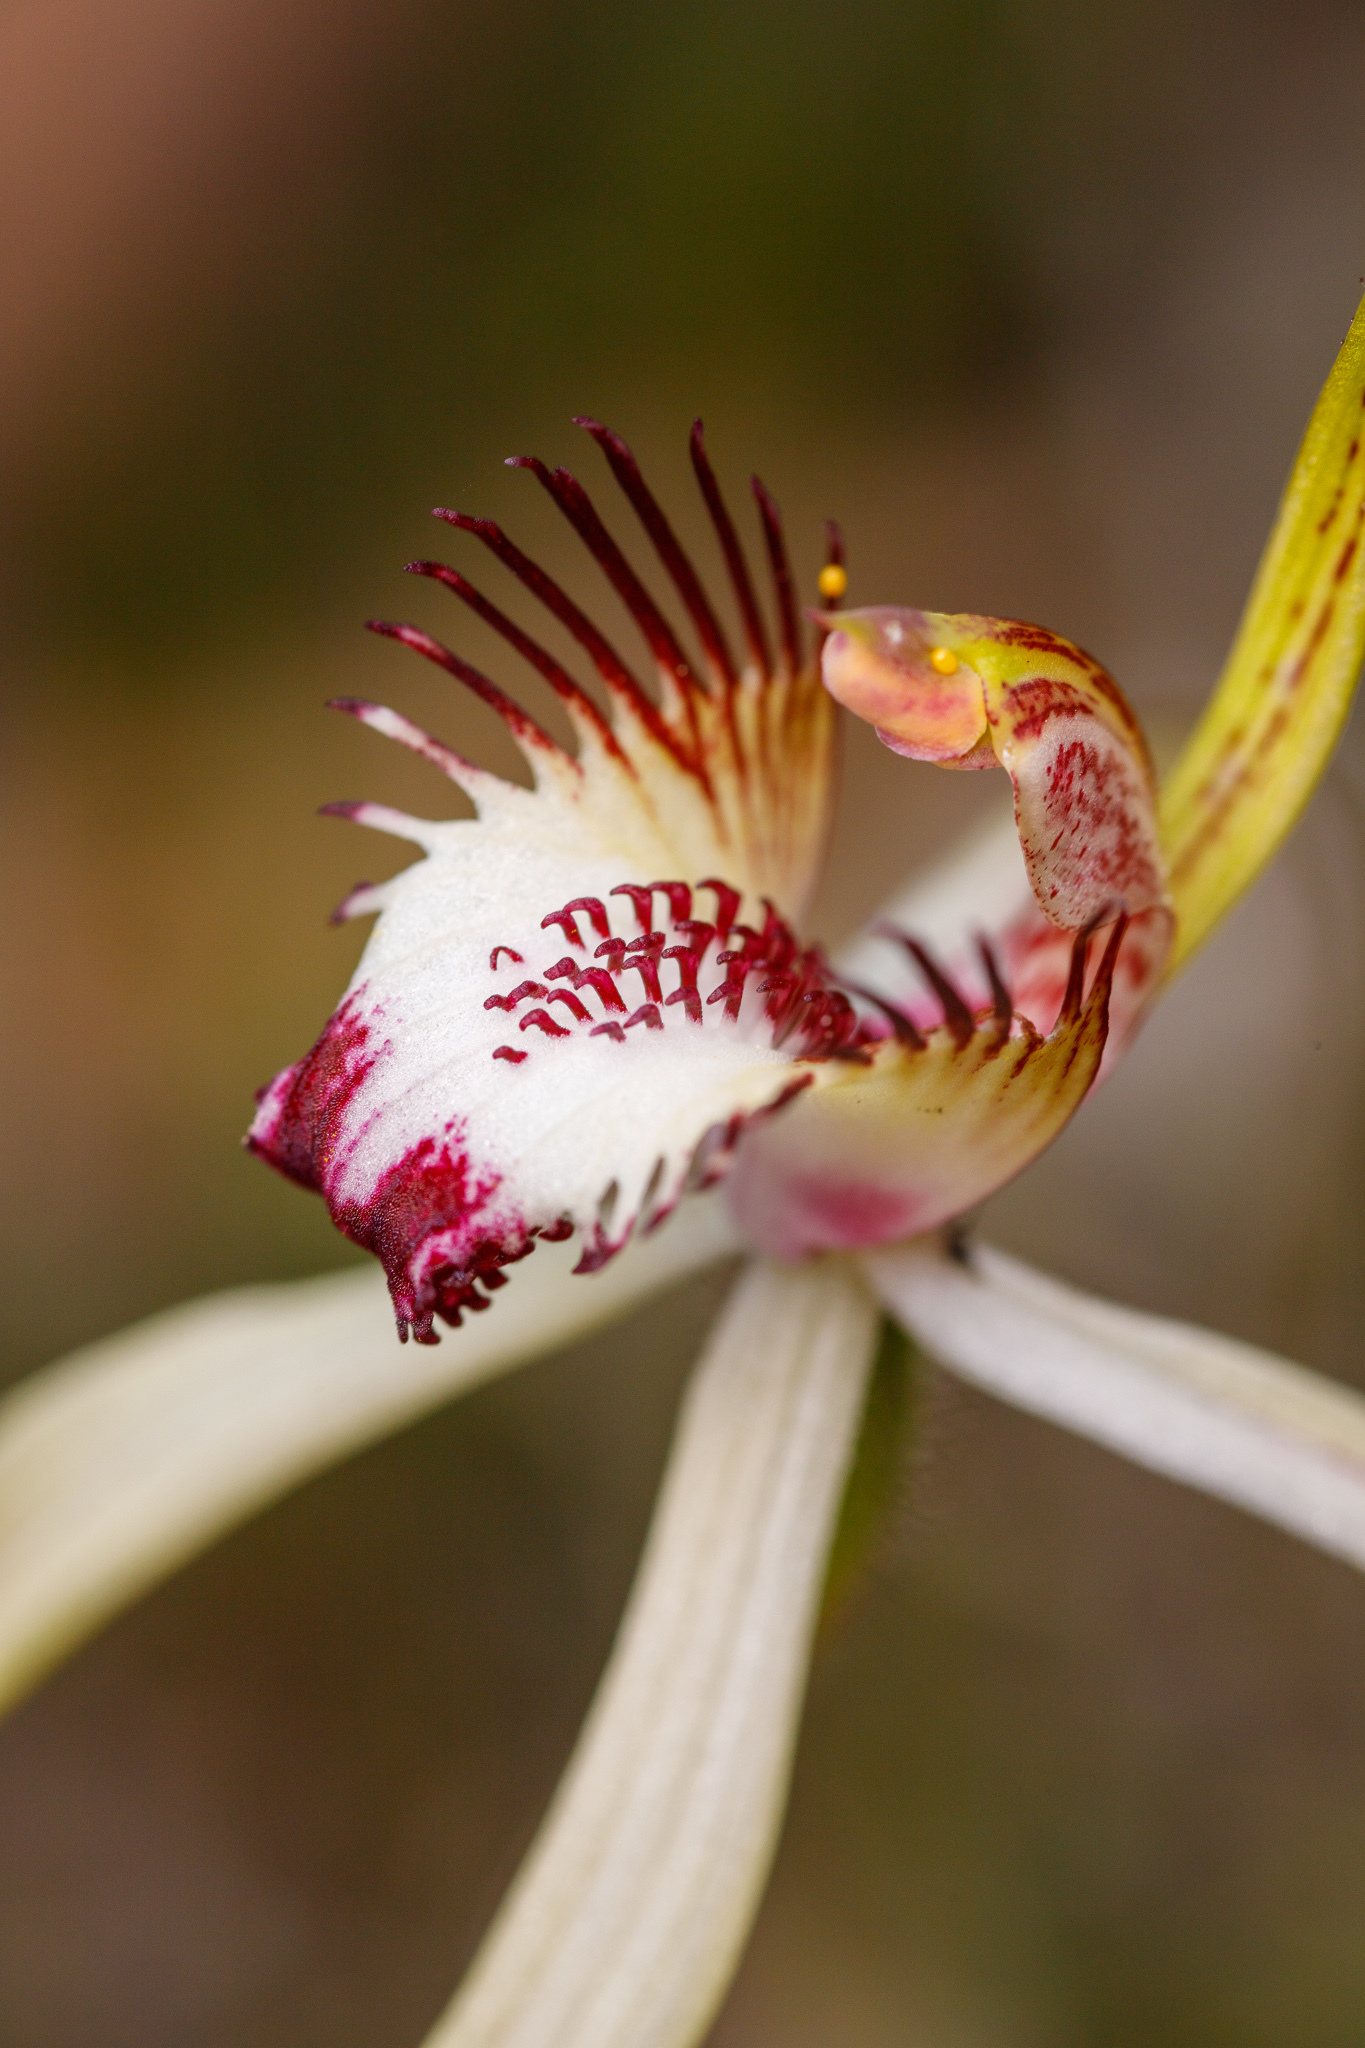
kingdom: Plantae
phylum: Tracheophyta
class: Liliopsida
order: Asparagales
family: Orchidaceae
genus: Caladenia
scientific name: Caladenia cala
